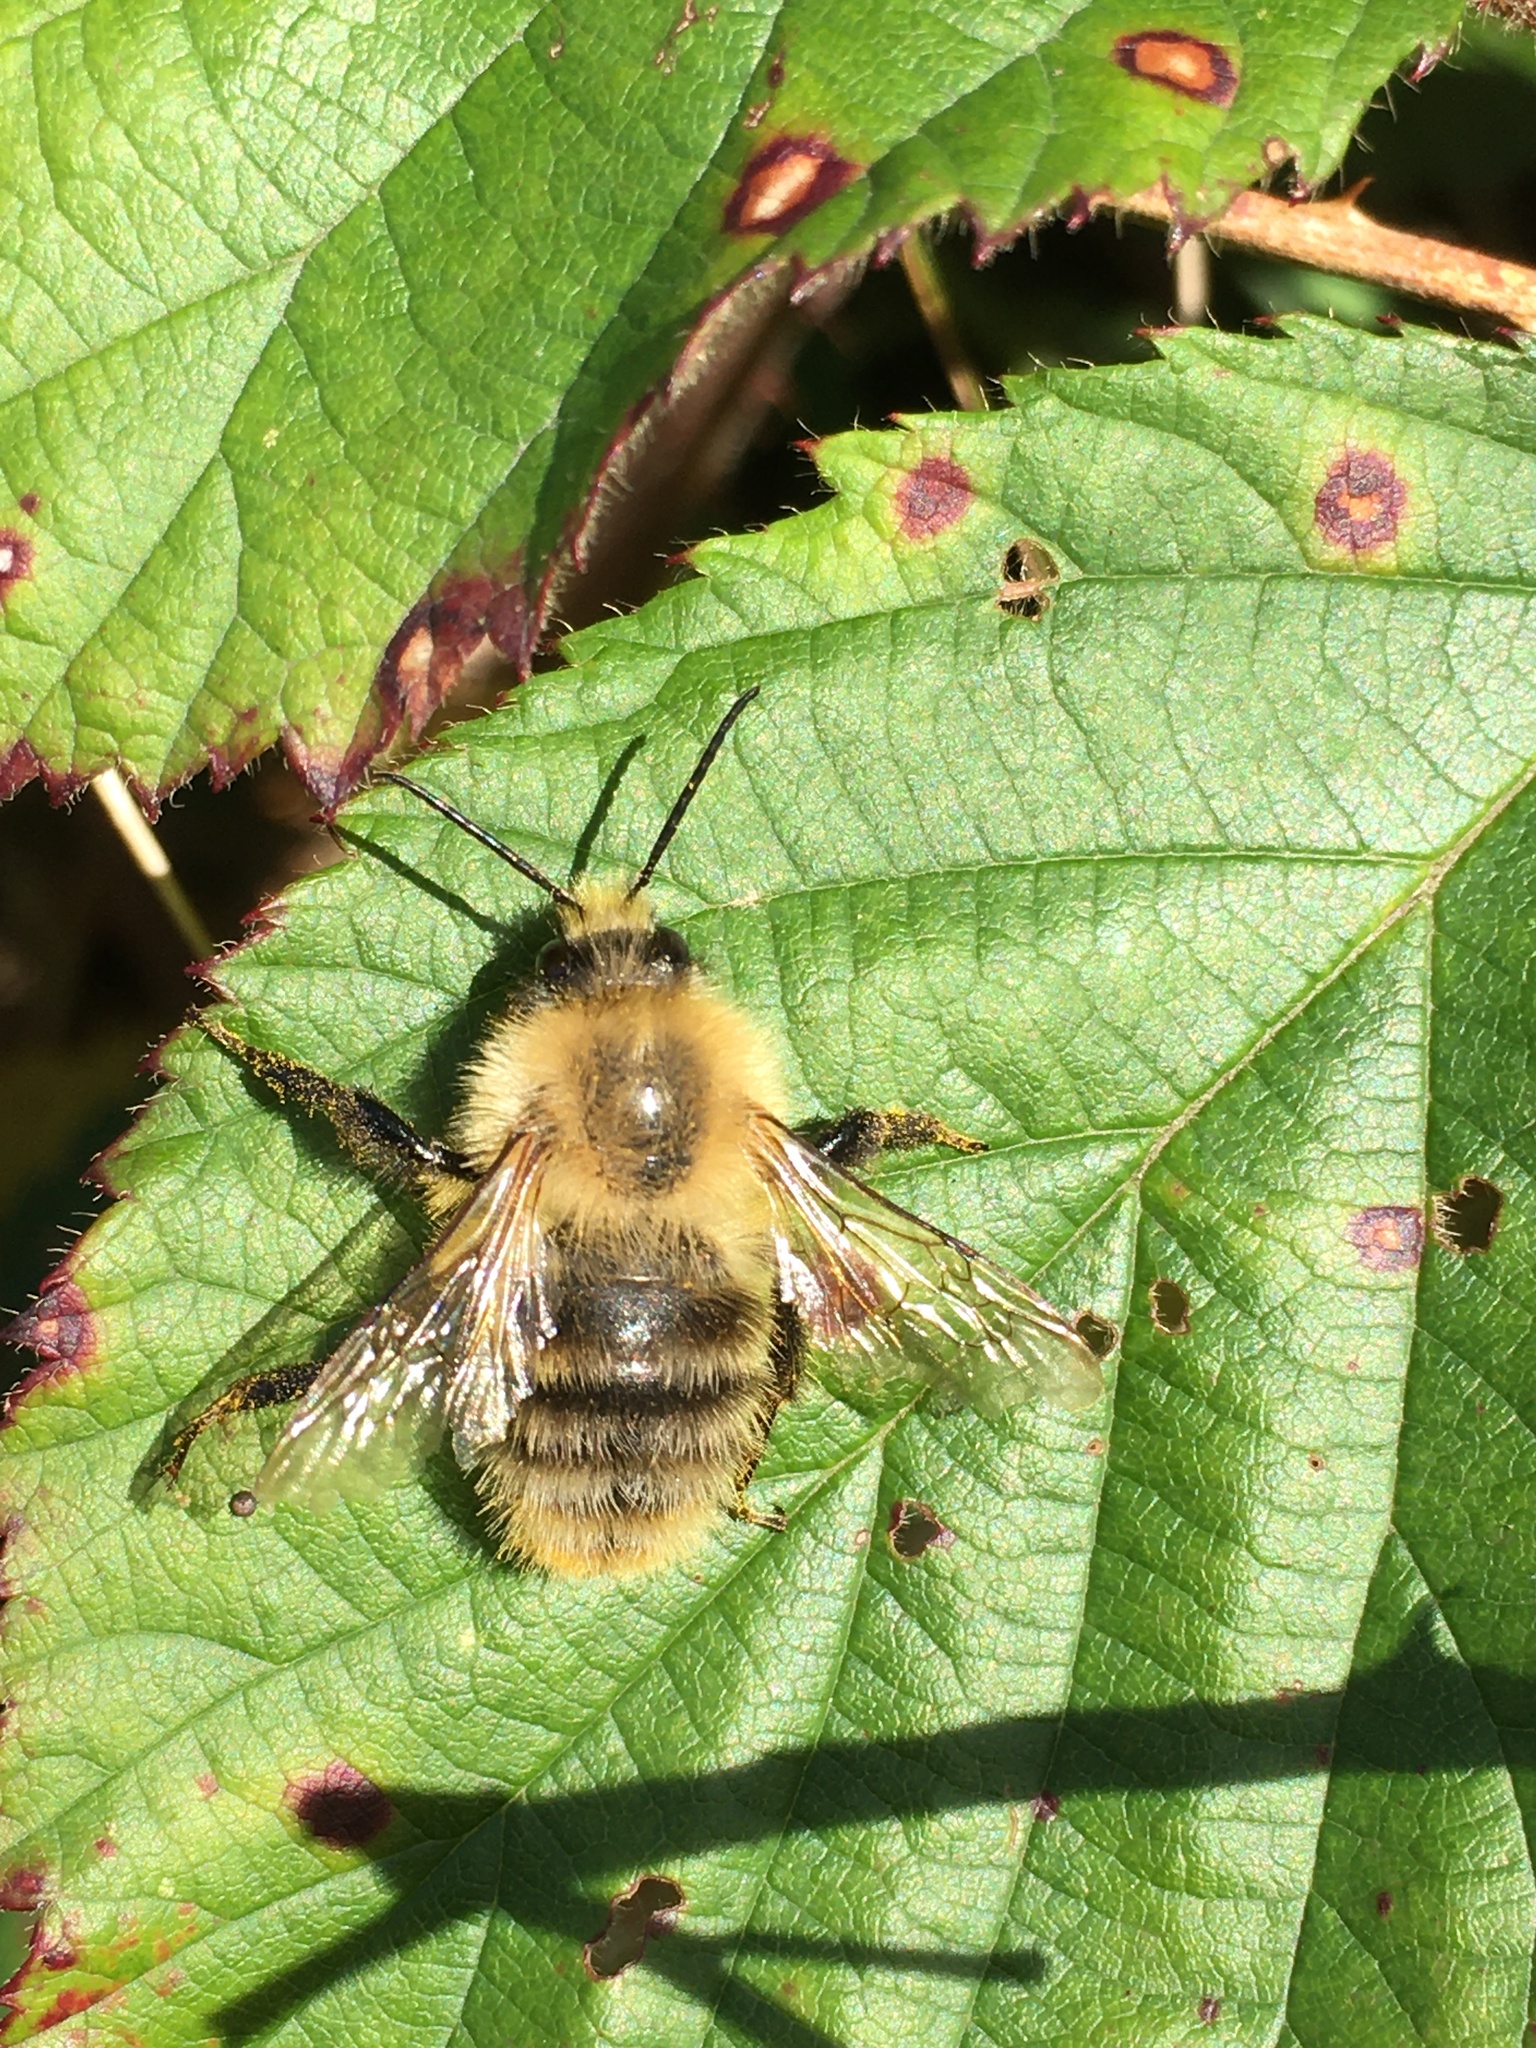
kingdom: Animalia
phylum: Arthropoda
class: Insecta
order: Hymenoptera
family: Apidae
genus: Bombus
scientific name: Bombus pascuorum
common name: Common carder bee
